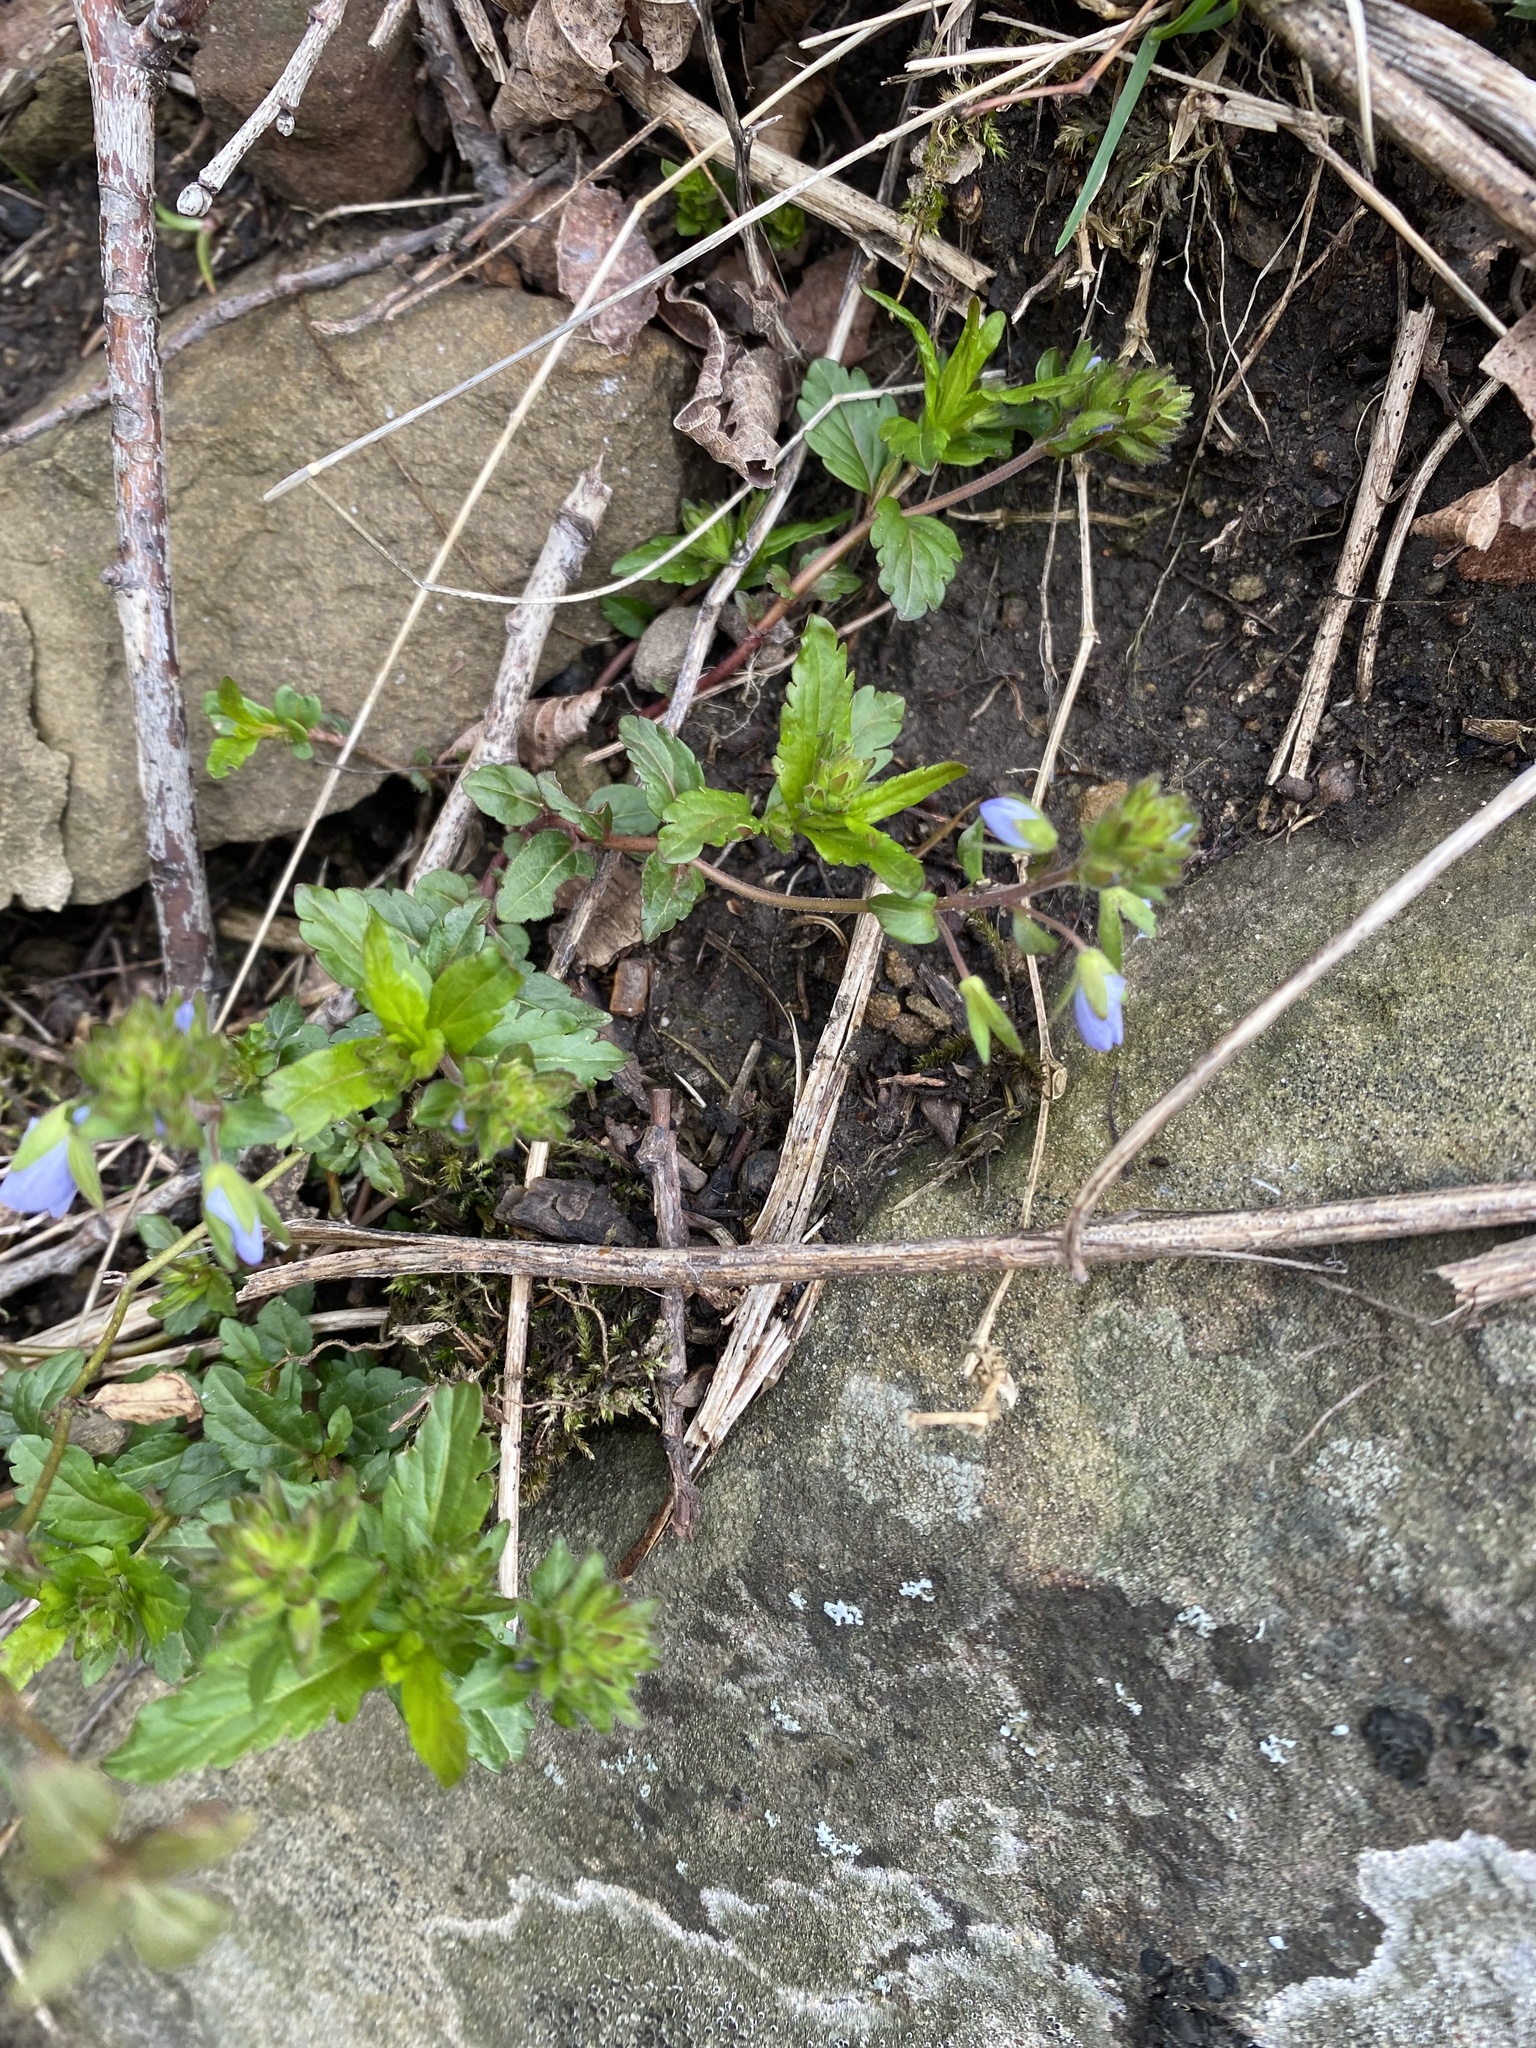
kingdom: Plantae
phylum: Tracheophyta
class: Magnoliopsida
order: Lamiales
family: Plantaginaceae
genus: Veronica
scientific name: Veronica
